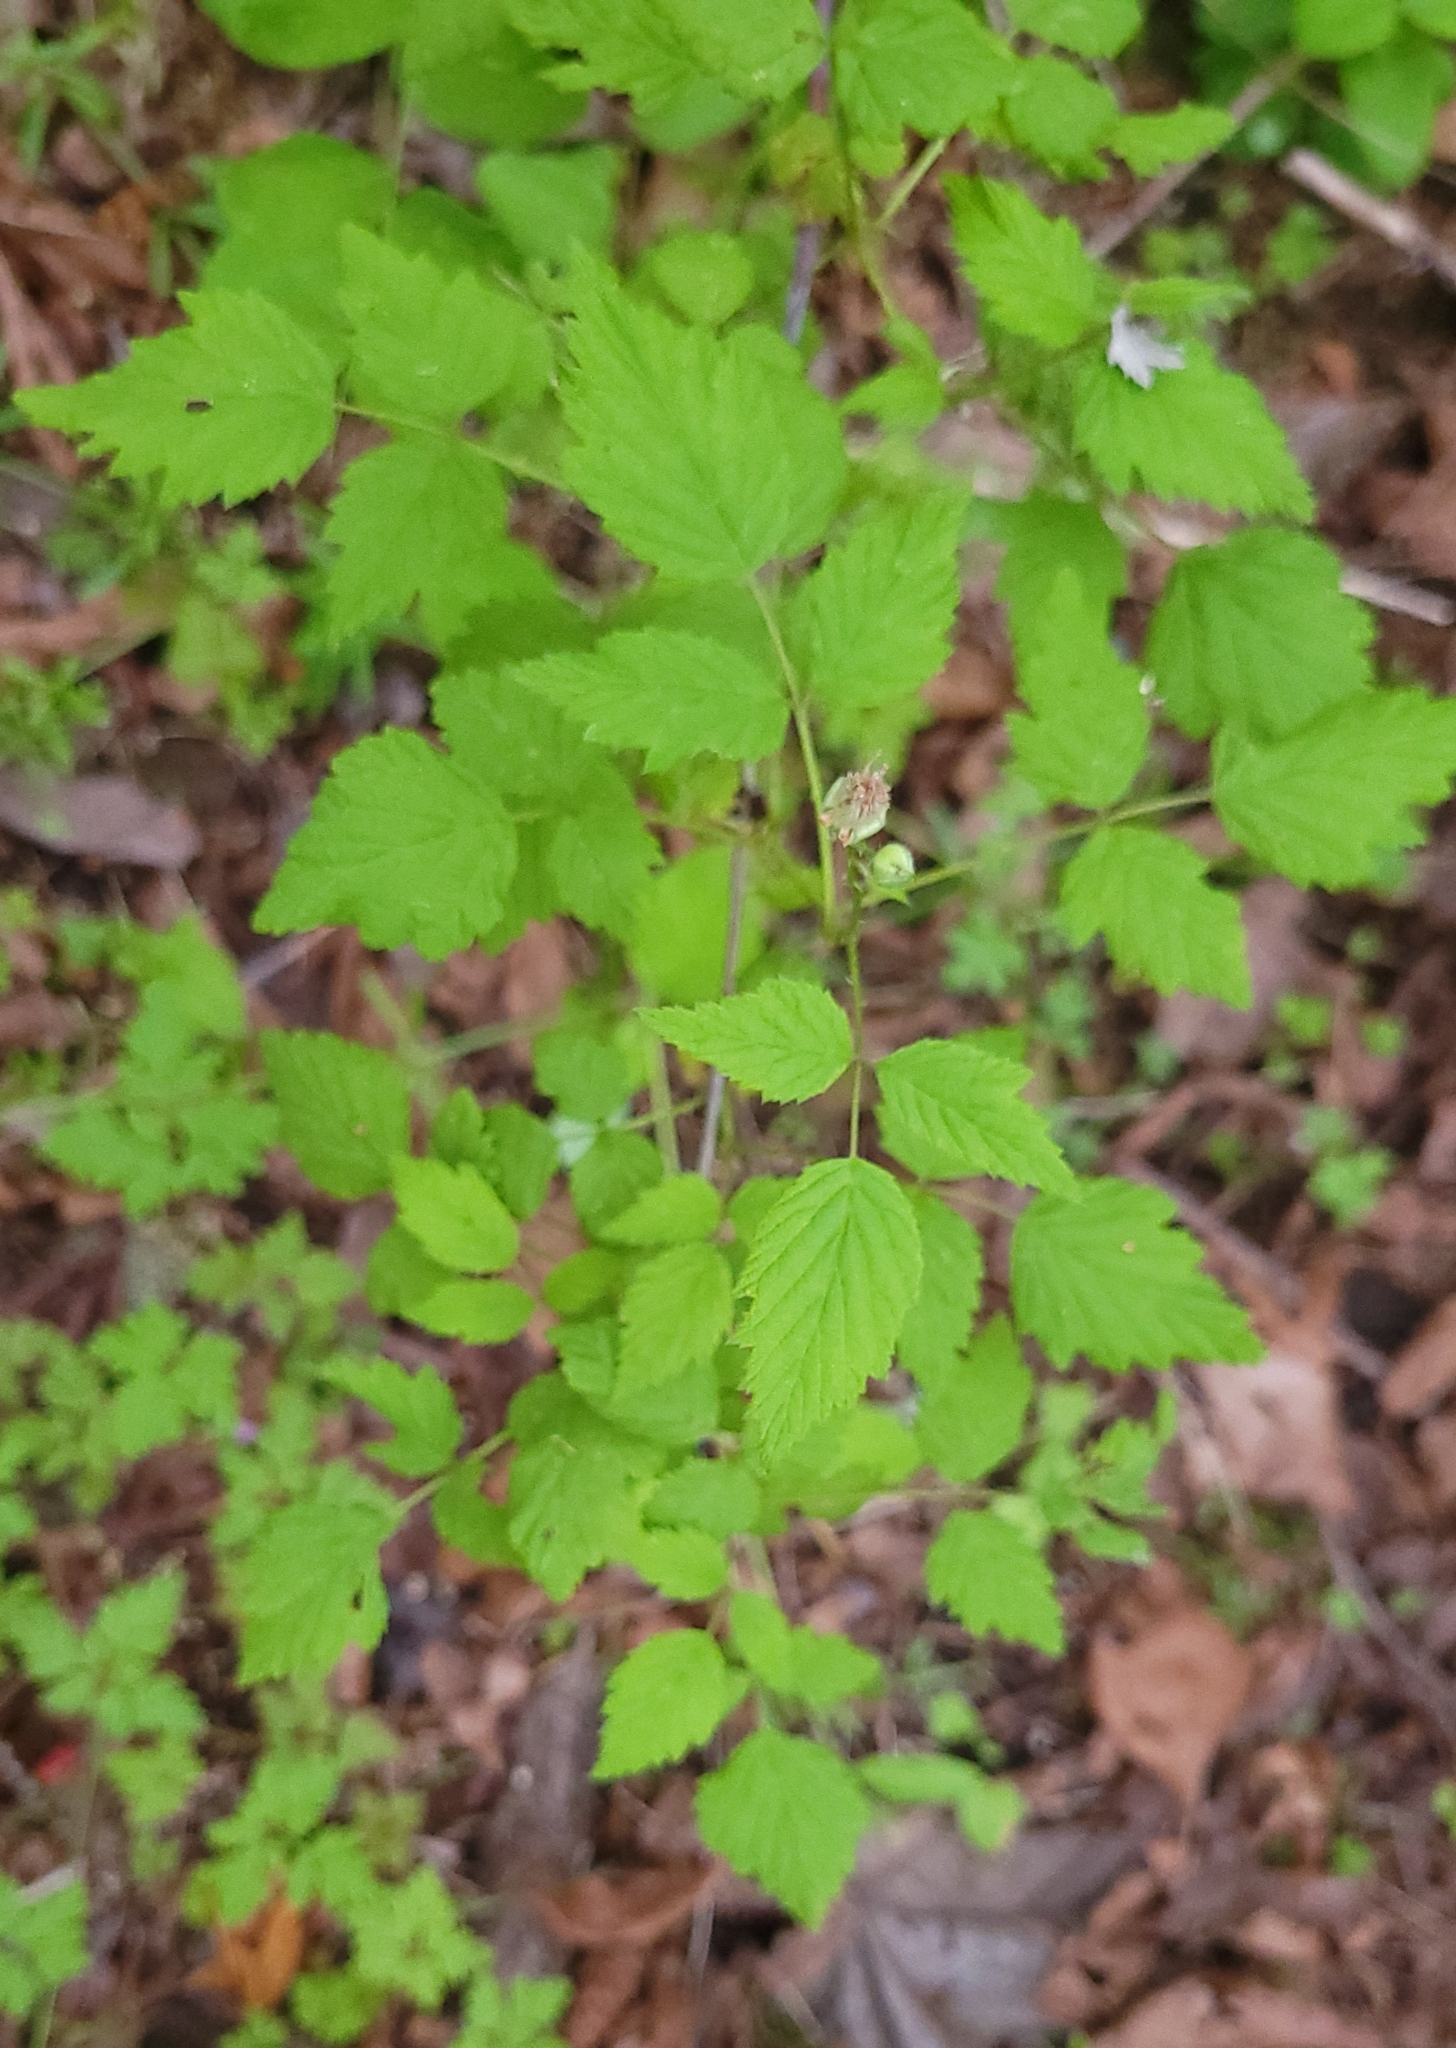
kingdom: Plantae
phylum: Tracheophyta
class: Magnoliopsida
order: Rosales
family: Rosaceae
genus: Rubus
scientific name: Rubus leucodermis
